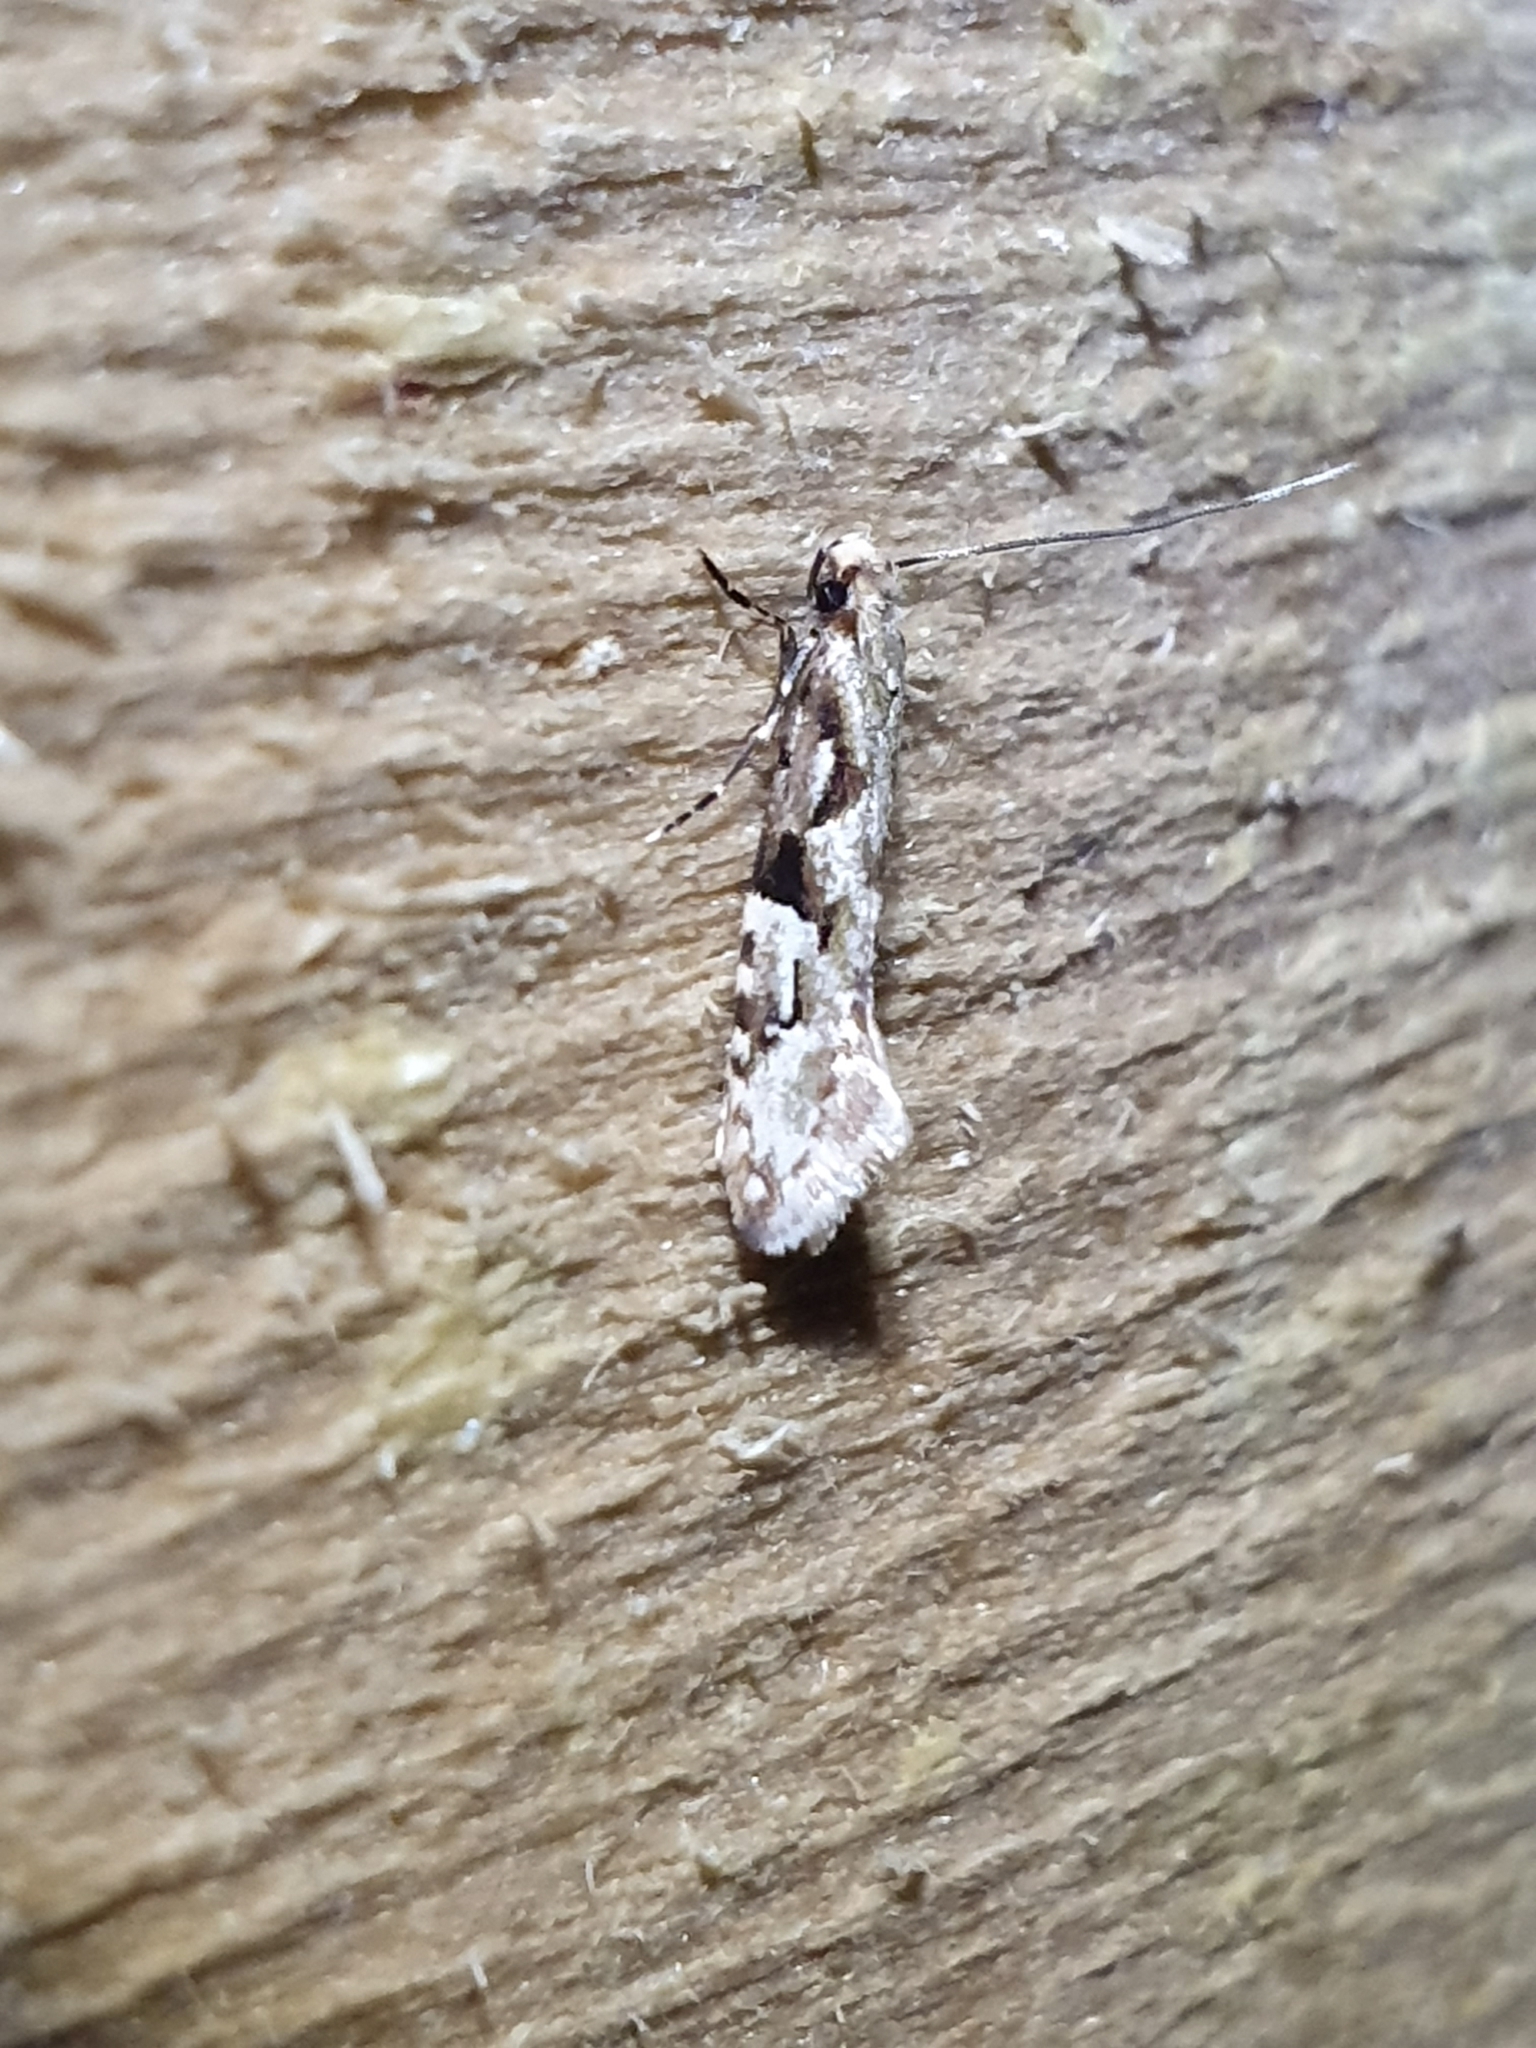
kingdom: Animalia
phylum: Arthropoda
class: Insecta
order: Lepidoptera
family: Tineidae
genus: Crypsitricha
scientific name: Crypsitricha mesotypa
